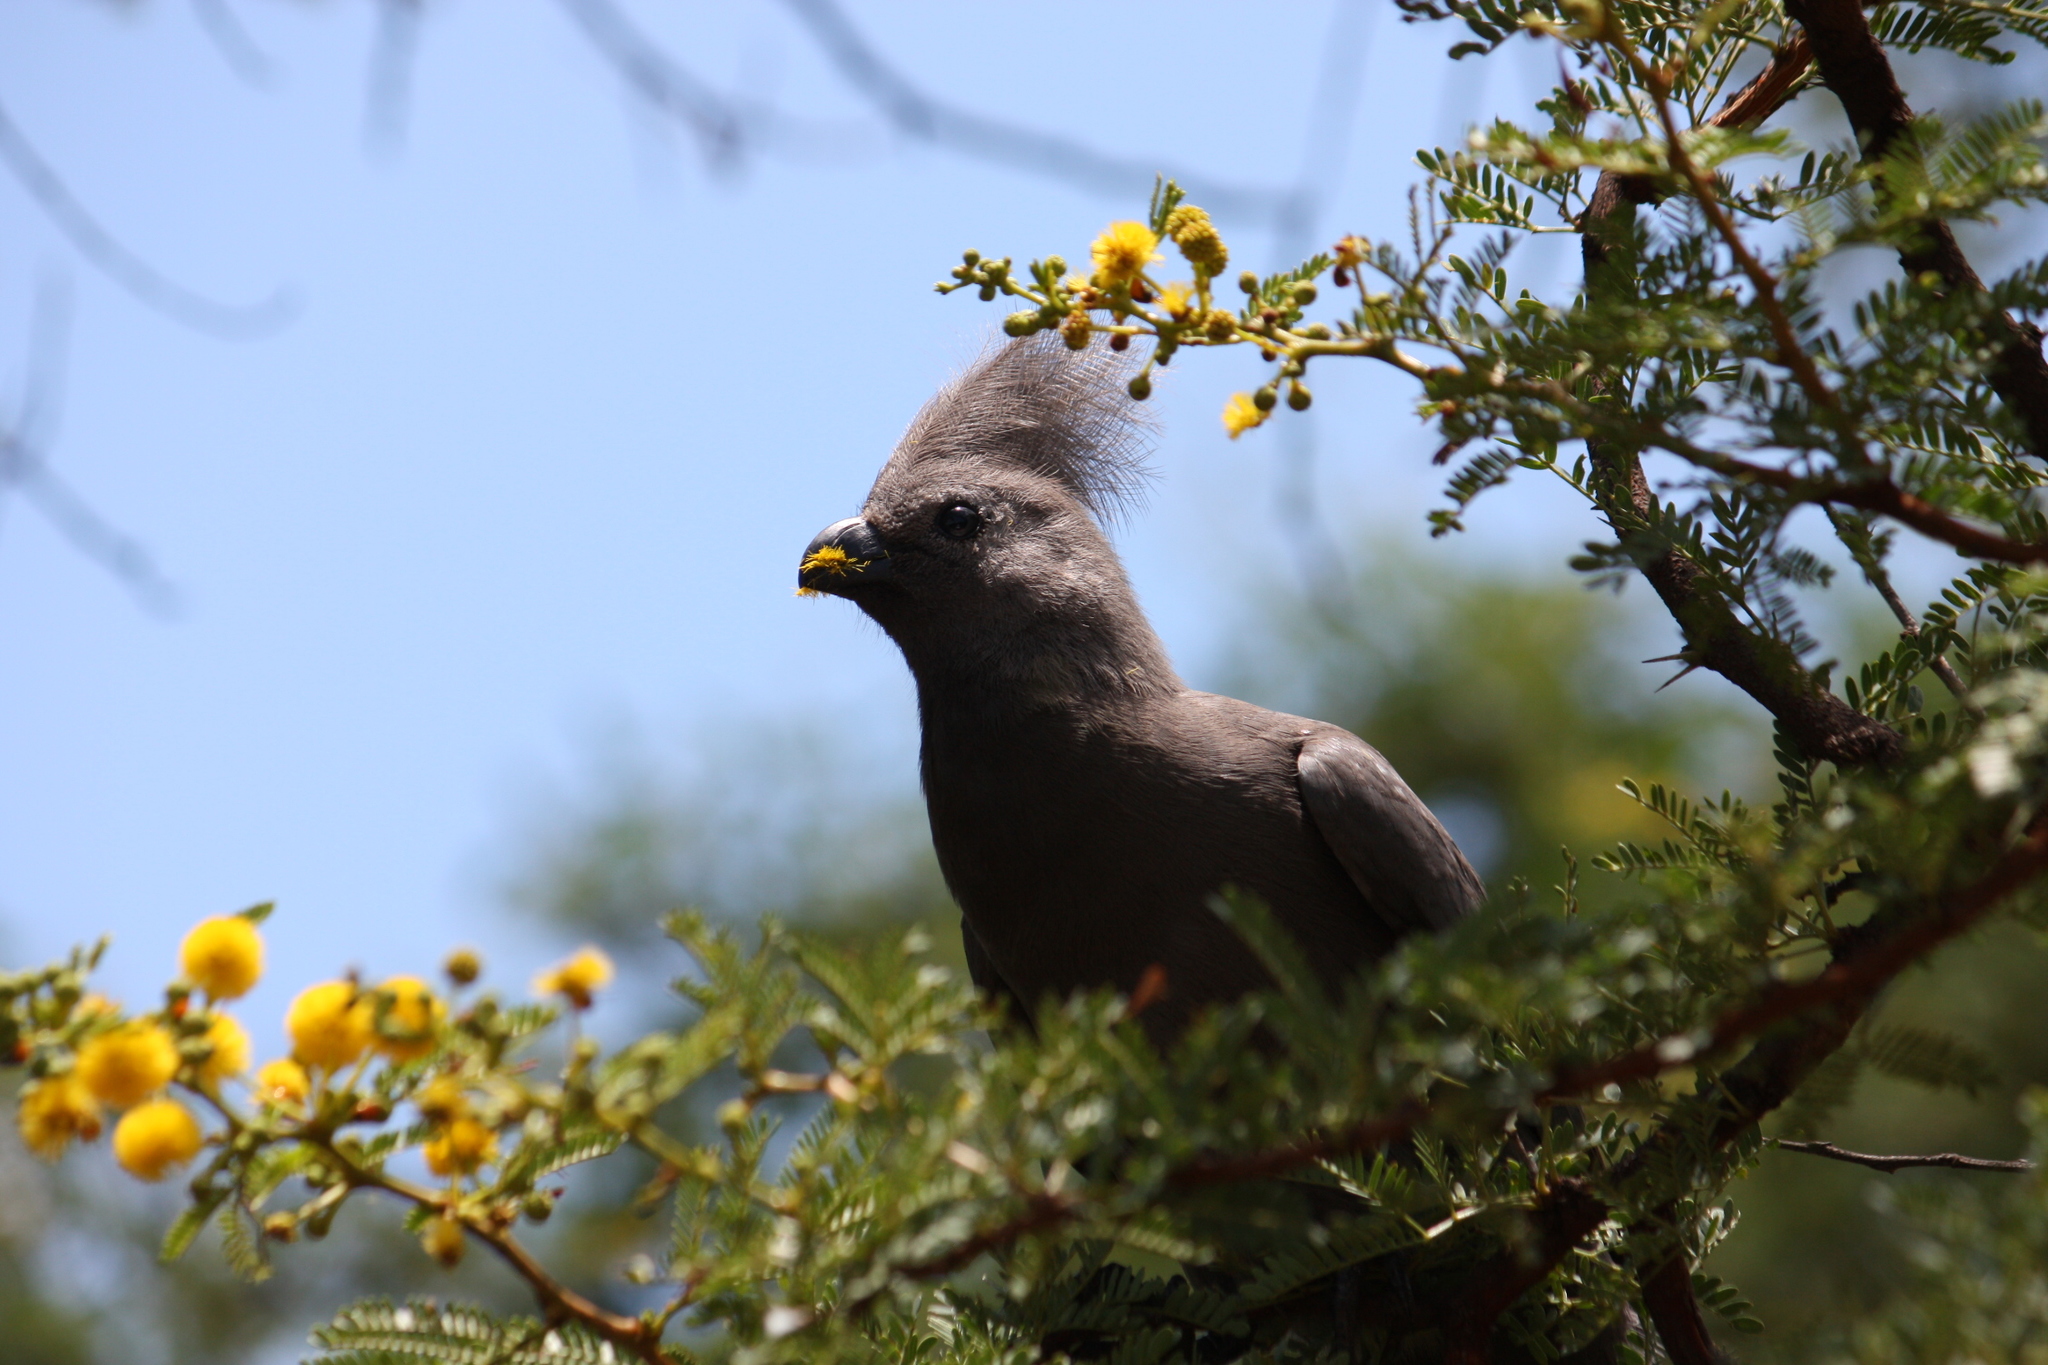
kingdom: Animalia
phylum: Chordata
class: Aves
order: Musophagiformes
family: Musophagidae
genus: Corythaixoides
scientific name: Corythaixoides concolor
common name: Grey go-away-bird
